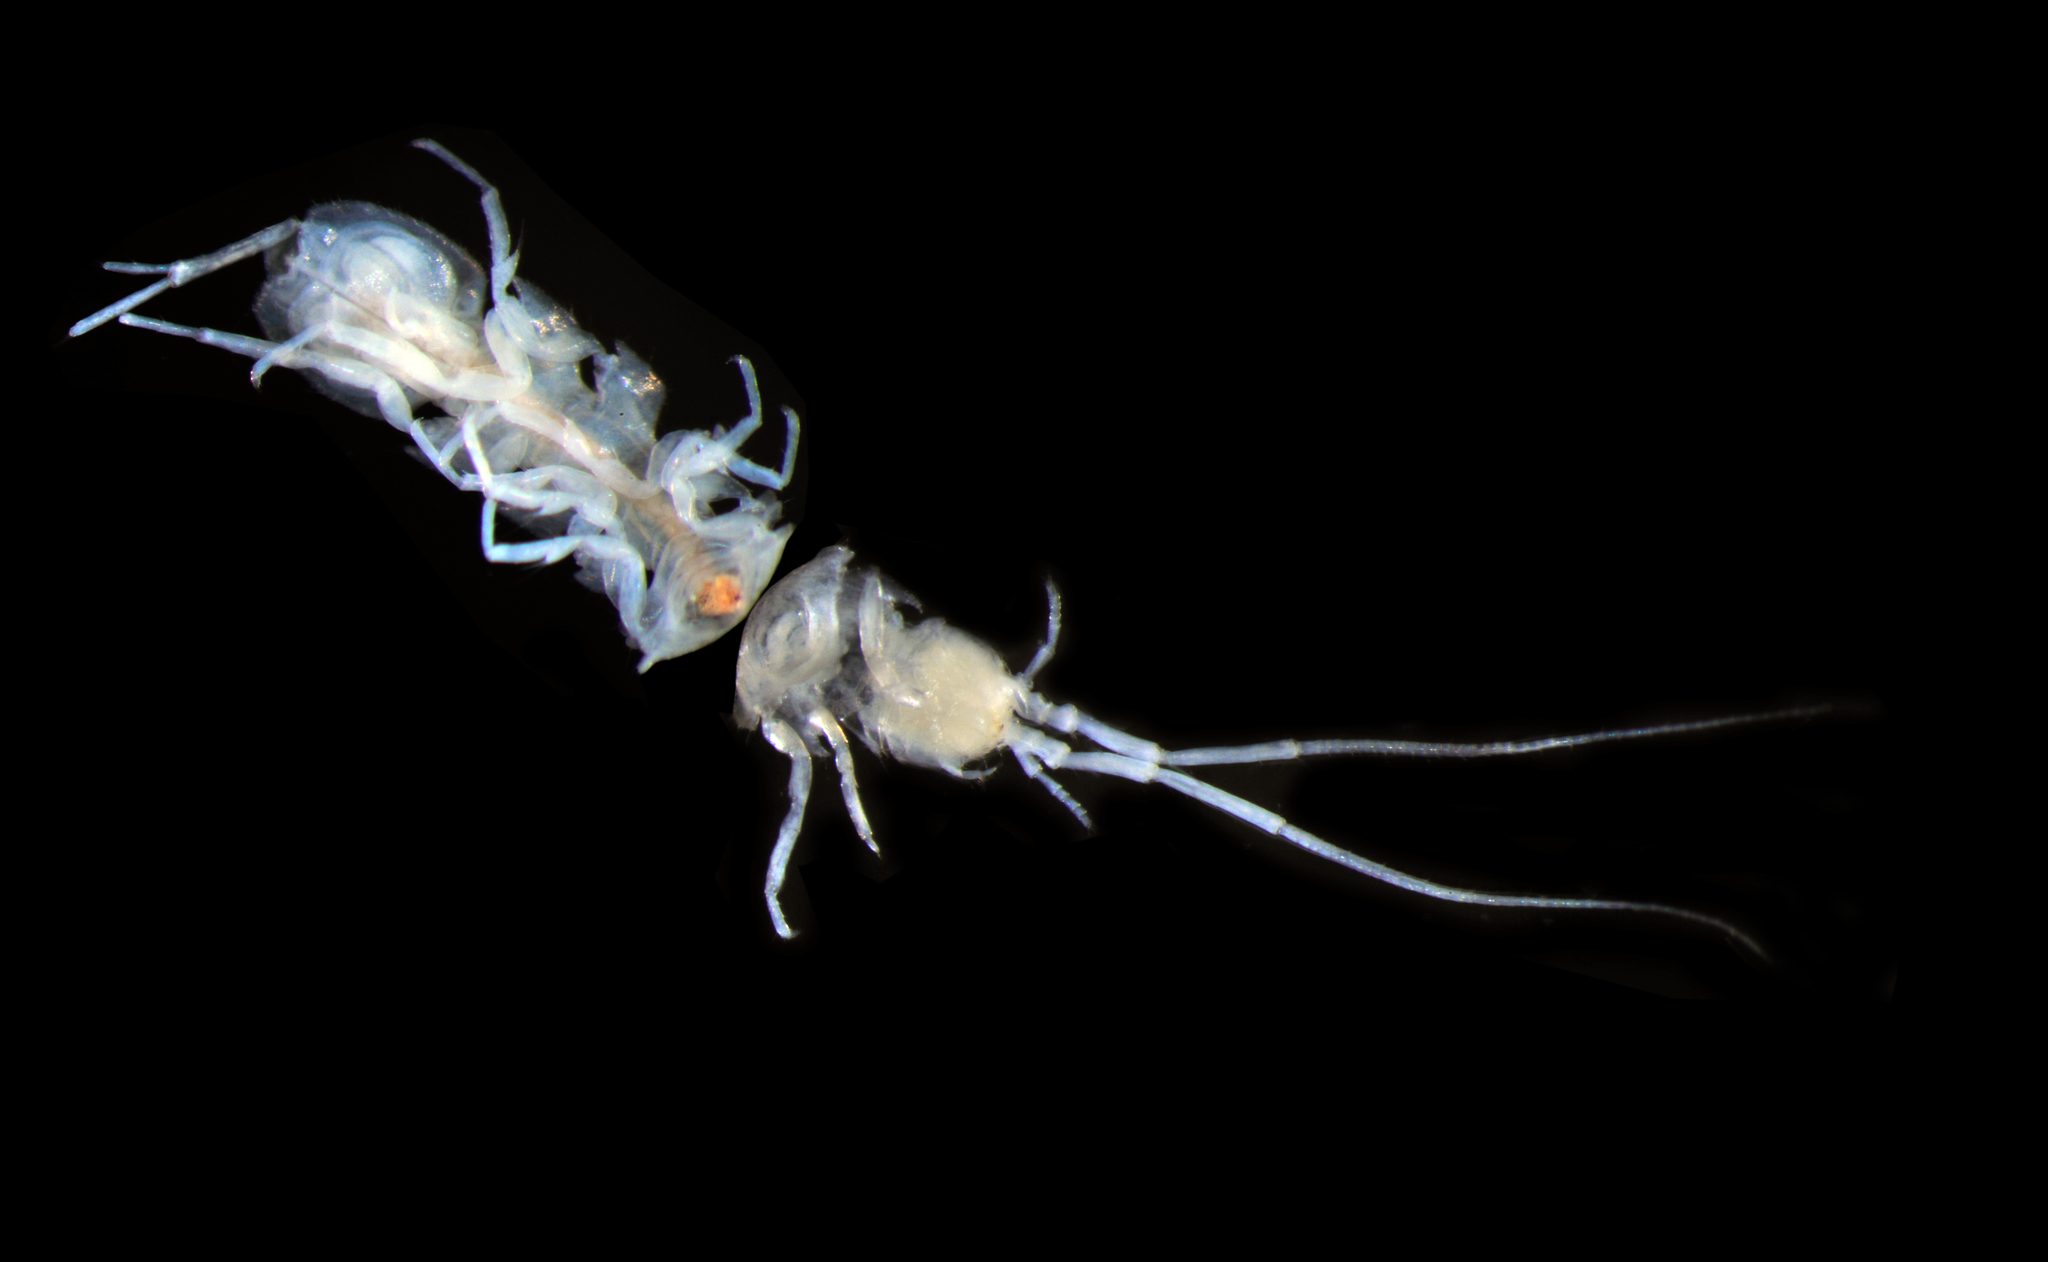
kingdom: Animalia
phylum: Arthropoda
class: Malacostraca
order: Isopoda
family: Asellidae
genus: Calasellus
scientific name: Calasellus californicus
